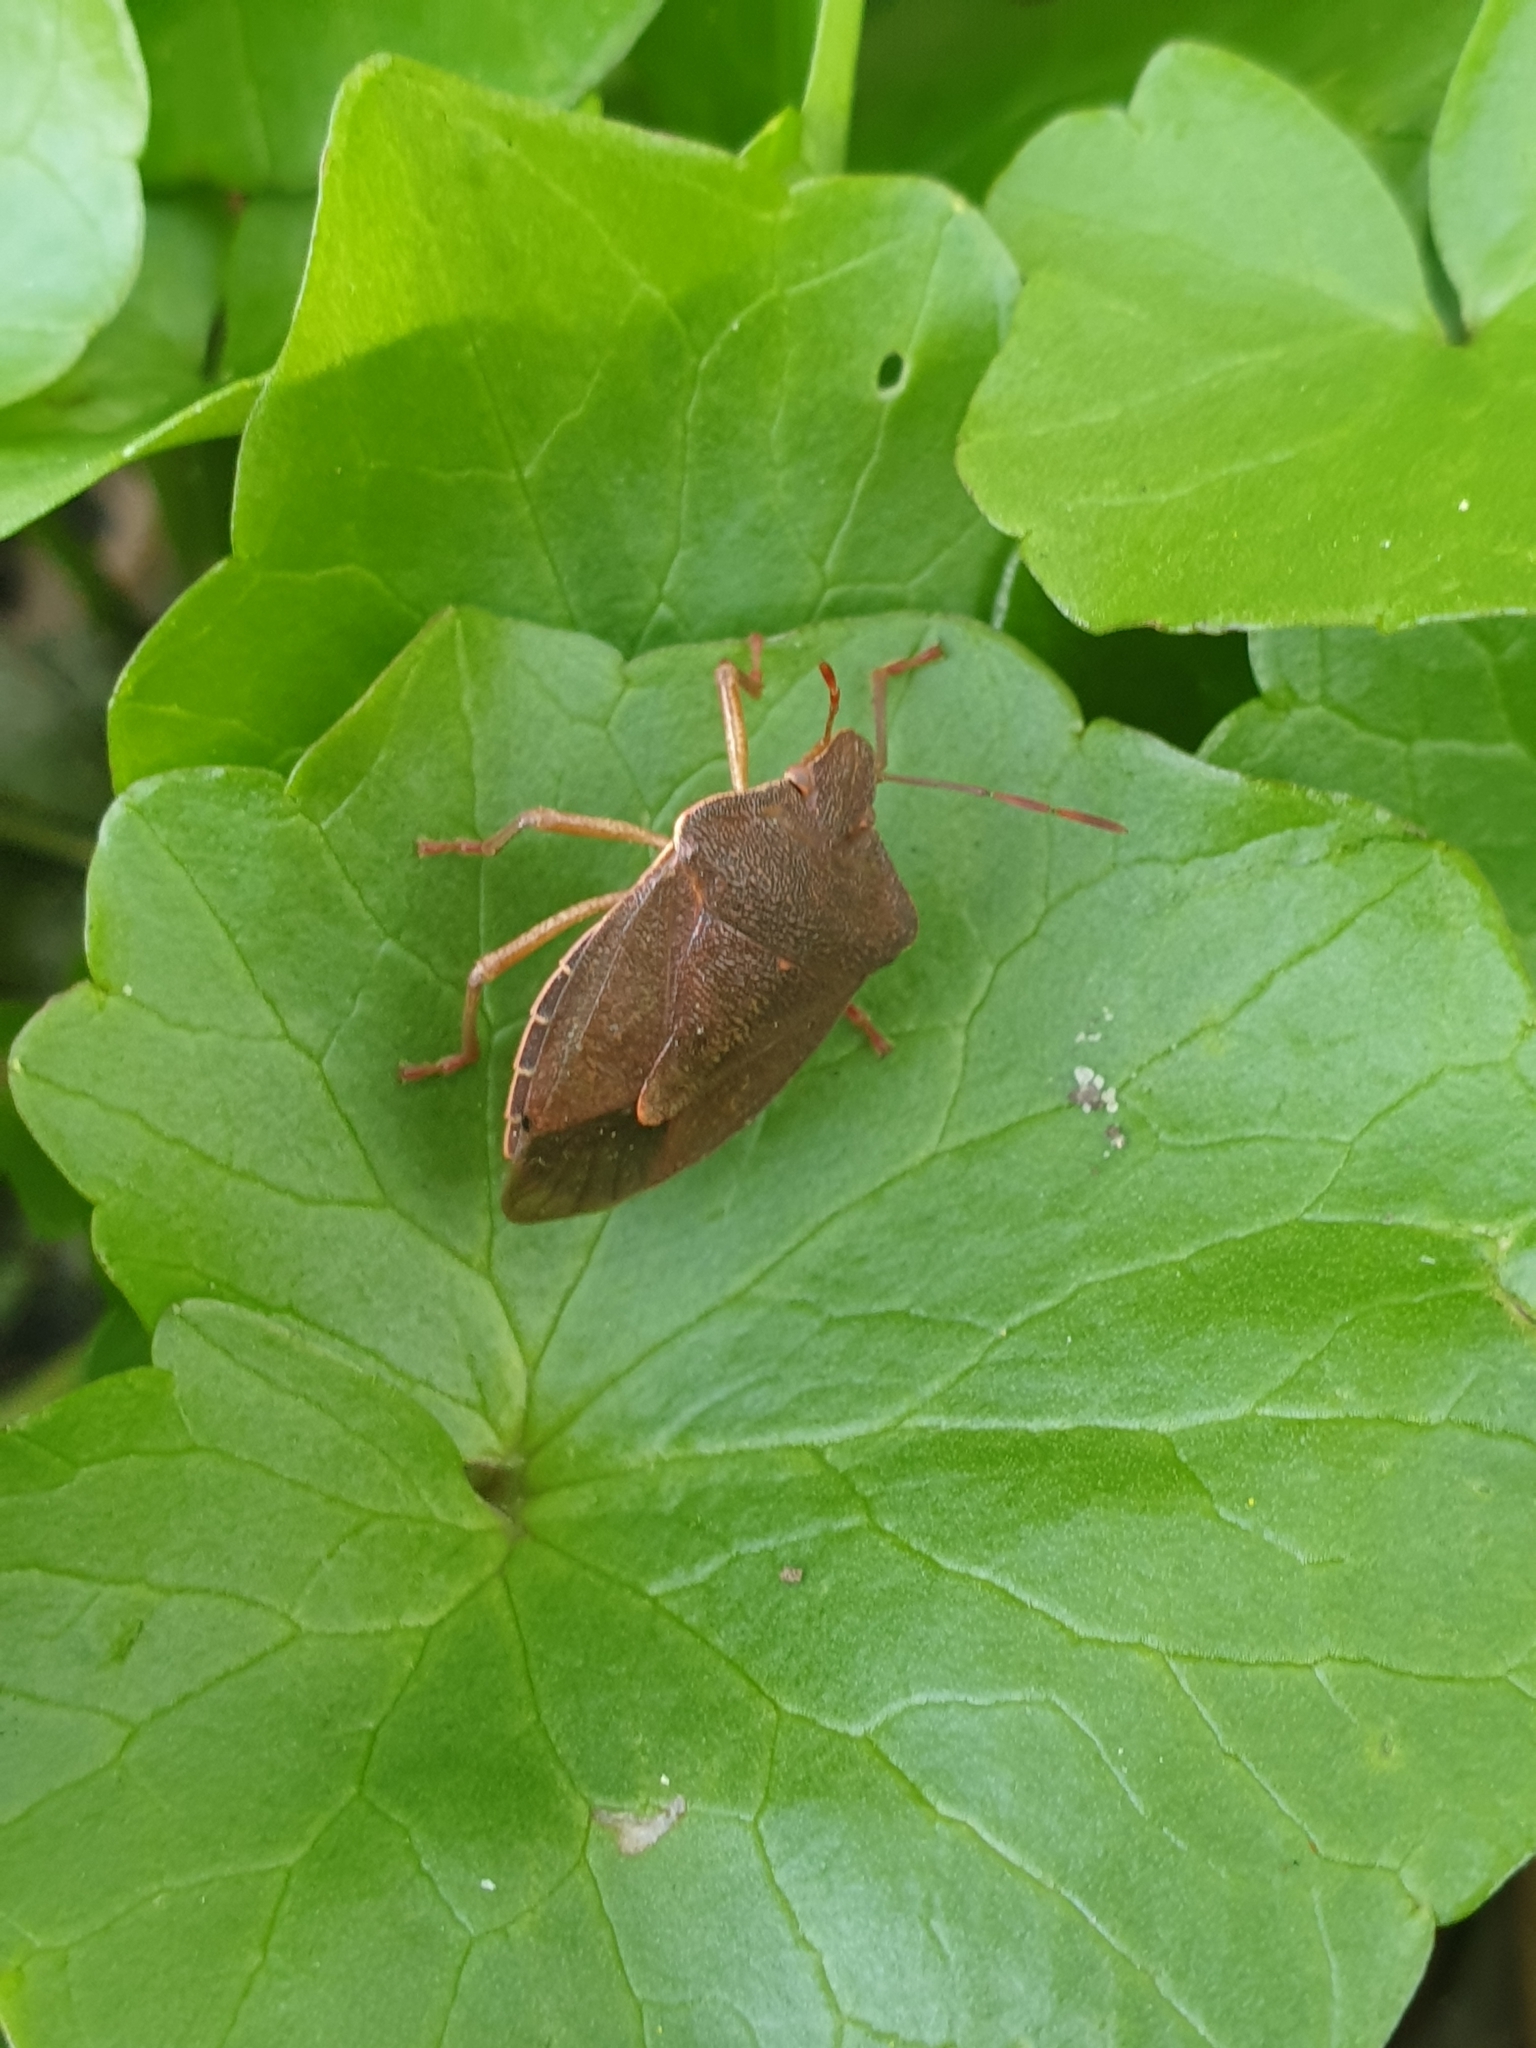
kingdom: Animalia
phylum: Arthropoda
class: Insecta
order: Hemiptera
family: Pentatomidae
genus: Palomena
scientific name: Palomena prasina
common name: Green shieldbug
